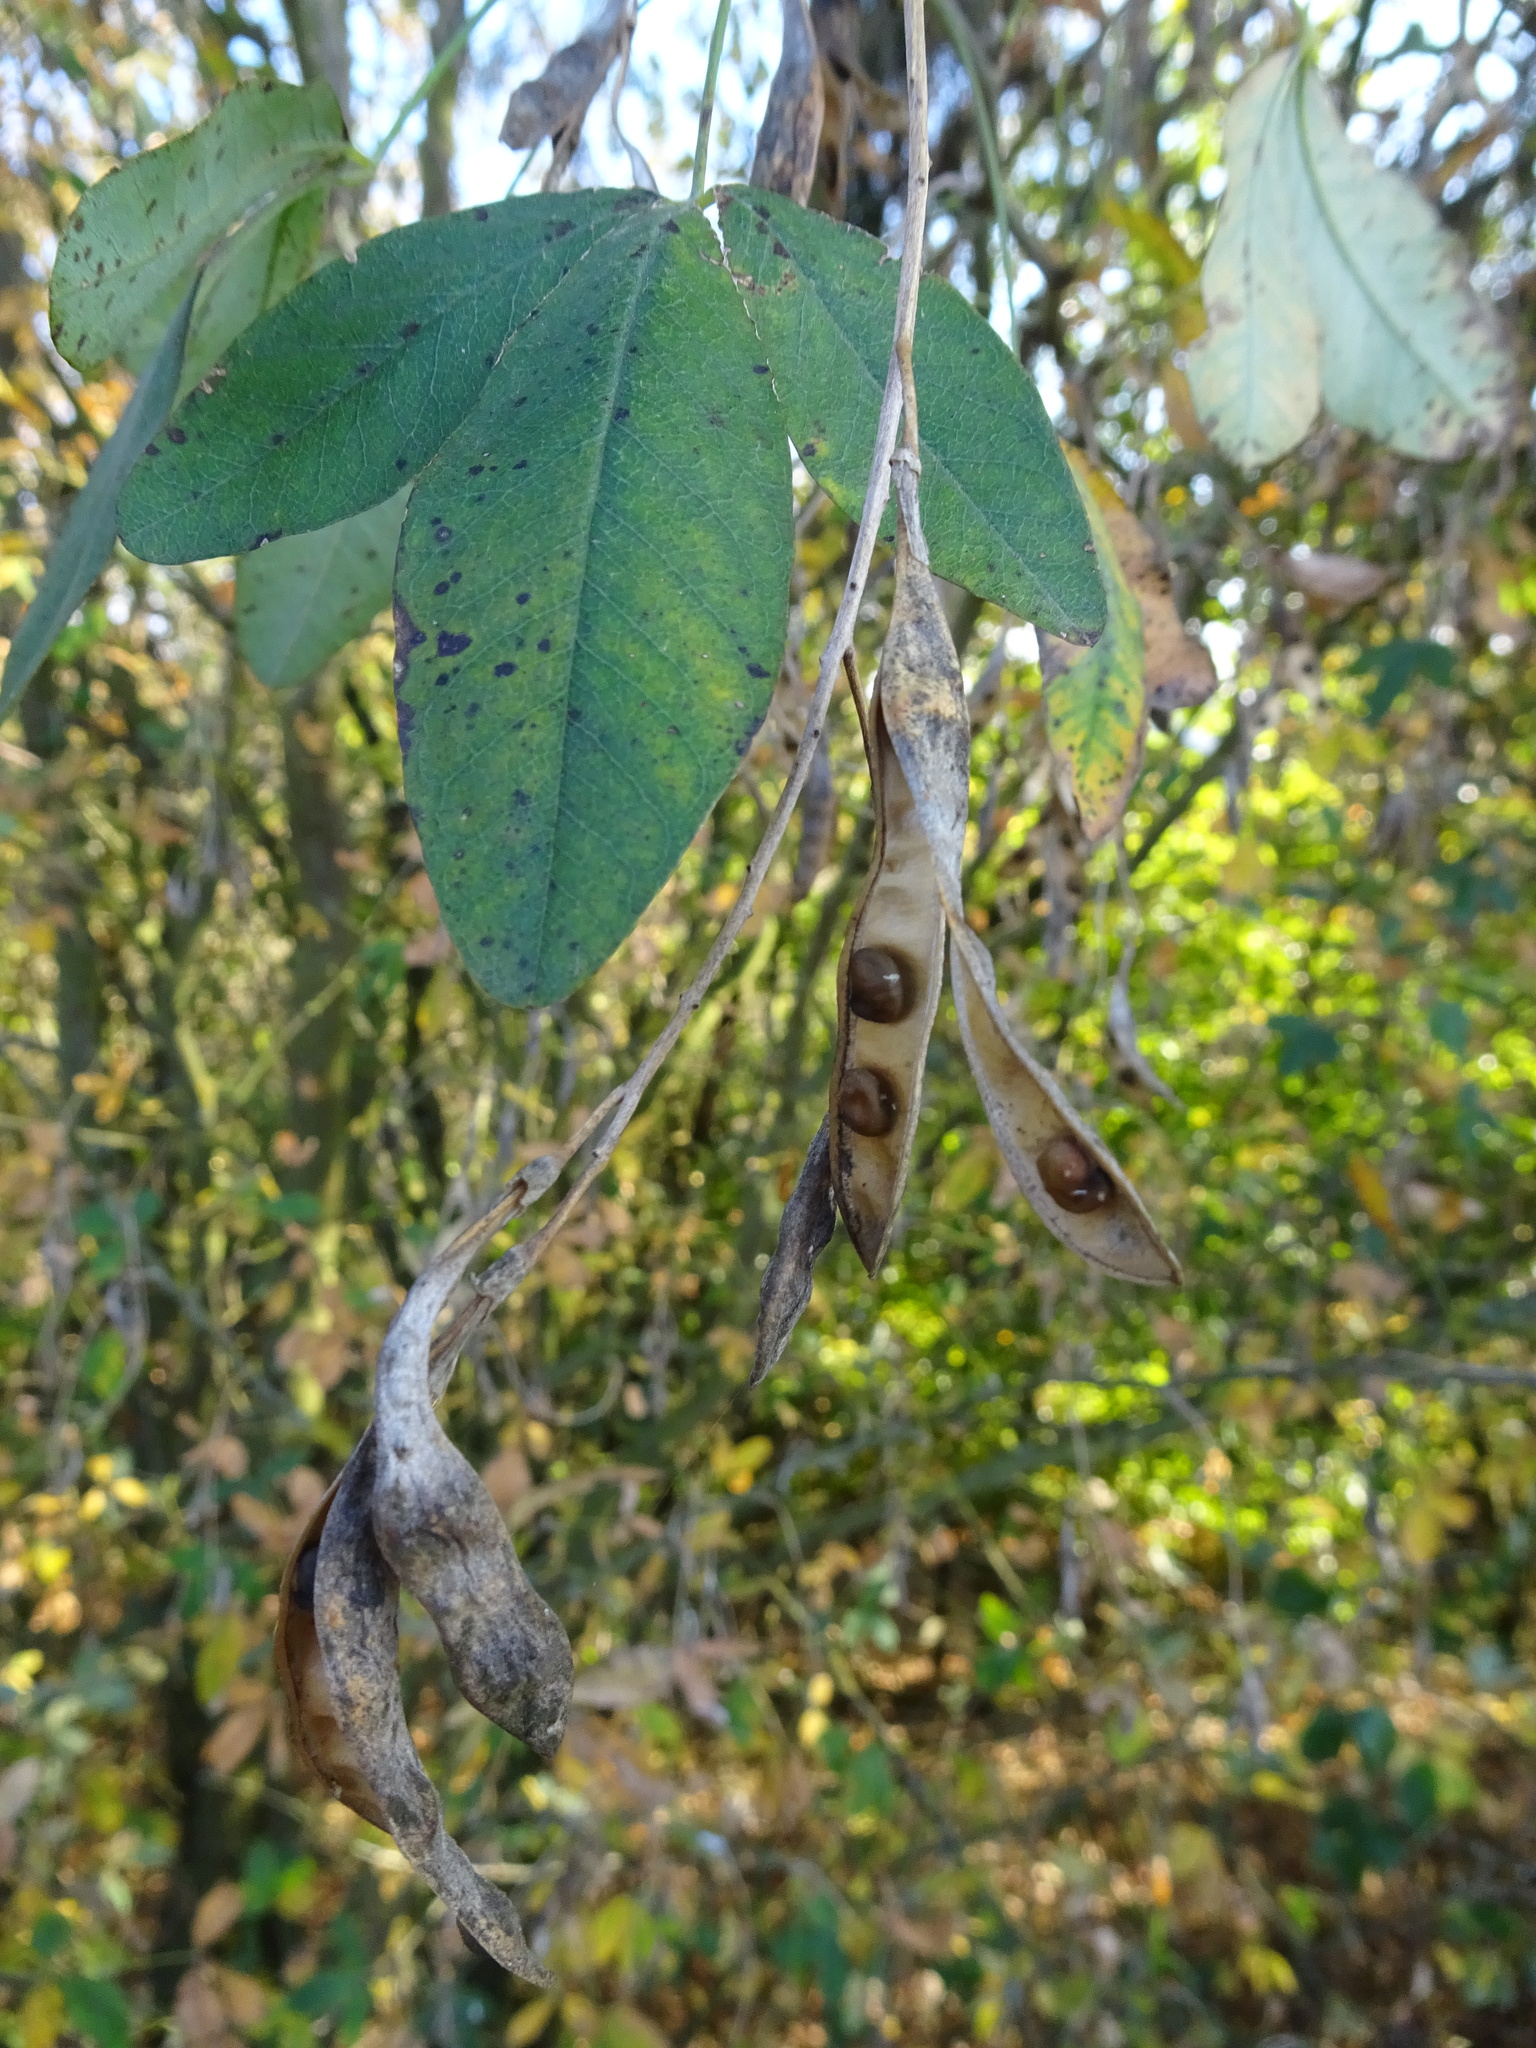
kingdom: Plantae
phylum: Tracheophyta
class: Magnoliopsida
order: Fabales
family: Fabaceae
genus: Laburnum
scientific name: Laburnum anagyroides
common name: Laburnum
